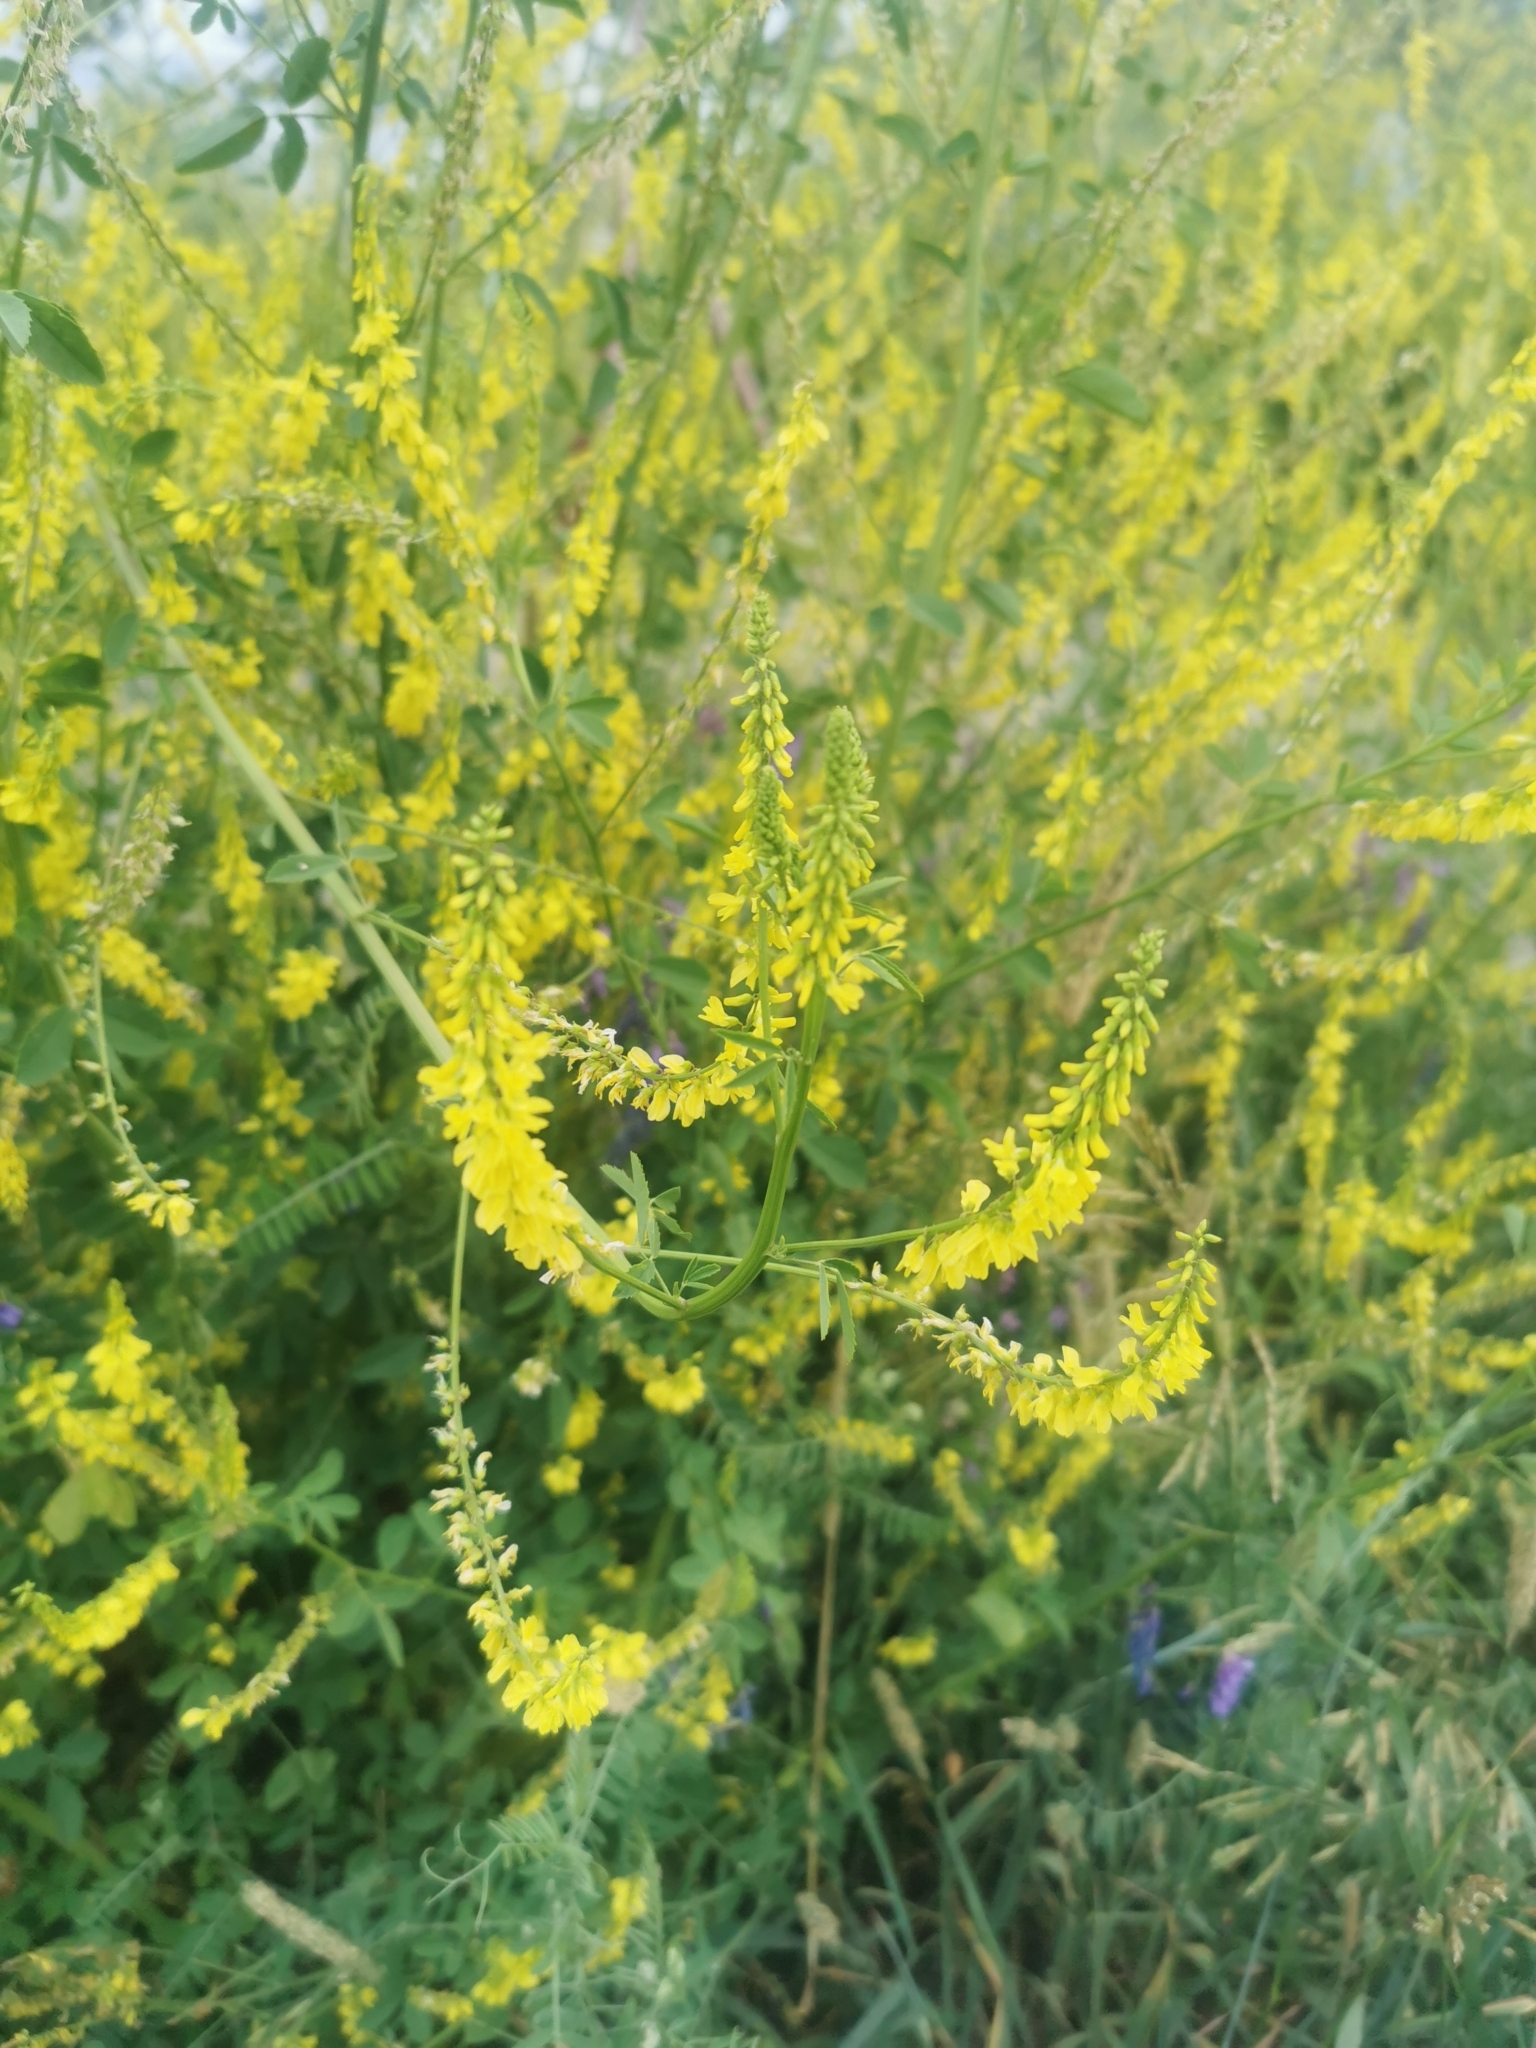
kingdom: Plantae
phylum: Tracheophyta
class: Magnoliopsida
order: Fabales
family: Fabaceae
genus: Melilotus
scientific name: Melilotus officinalis
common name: Sweetclover
